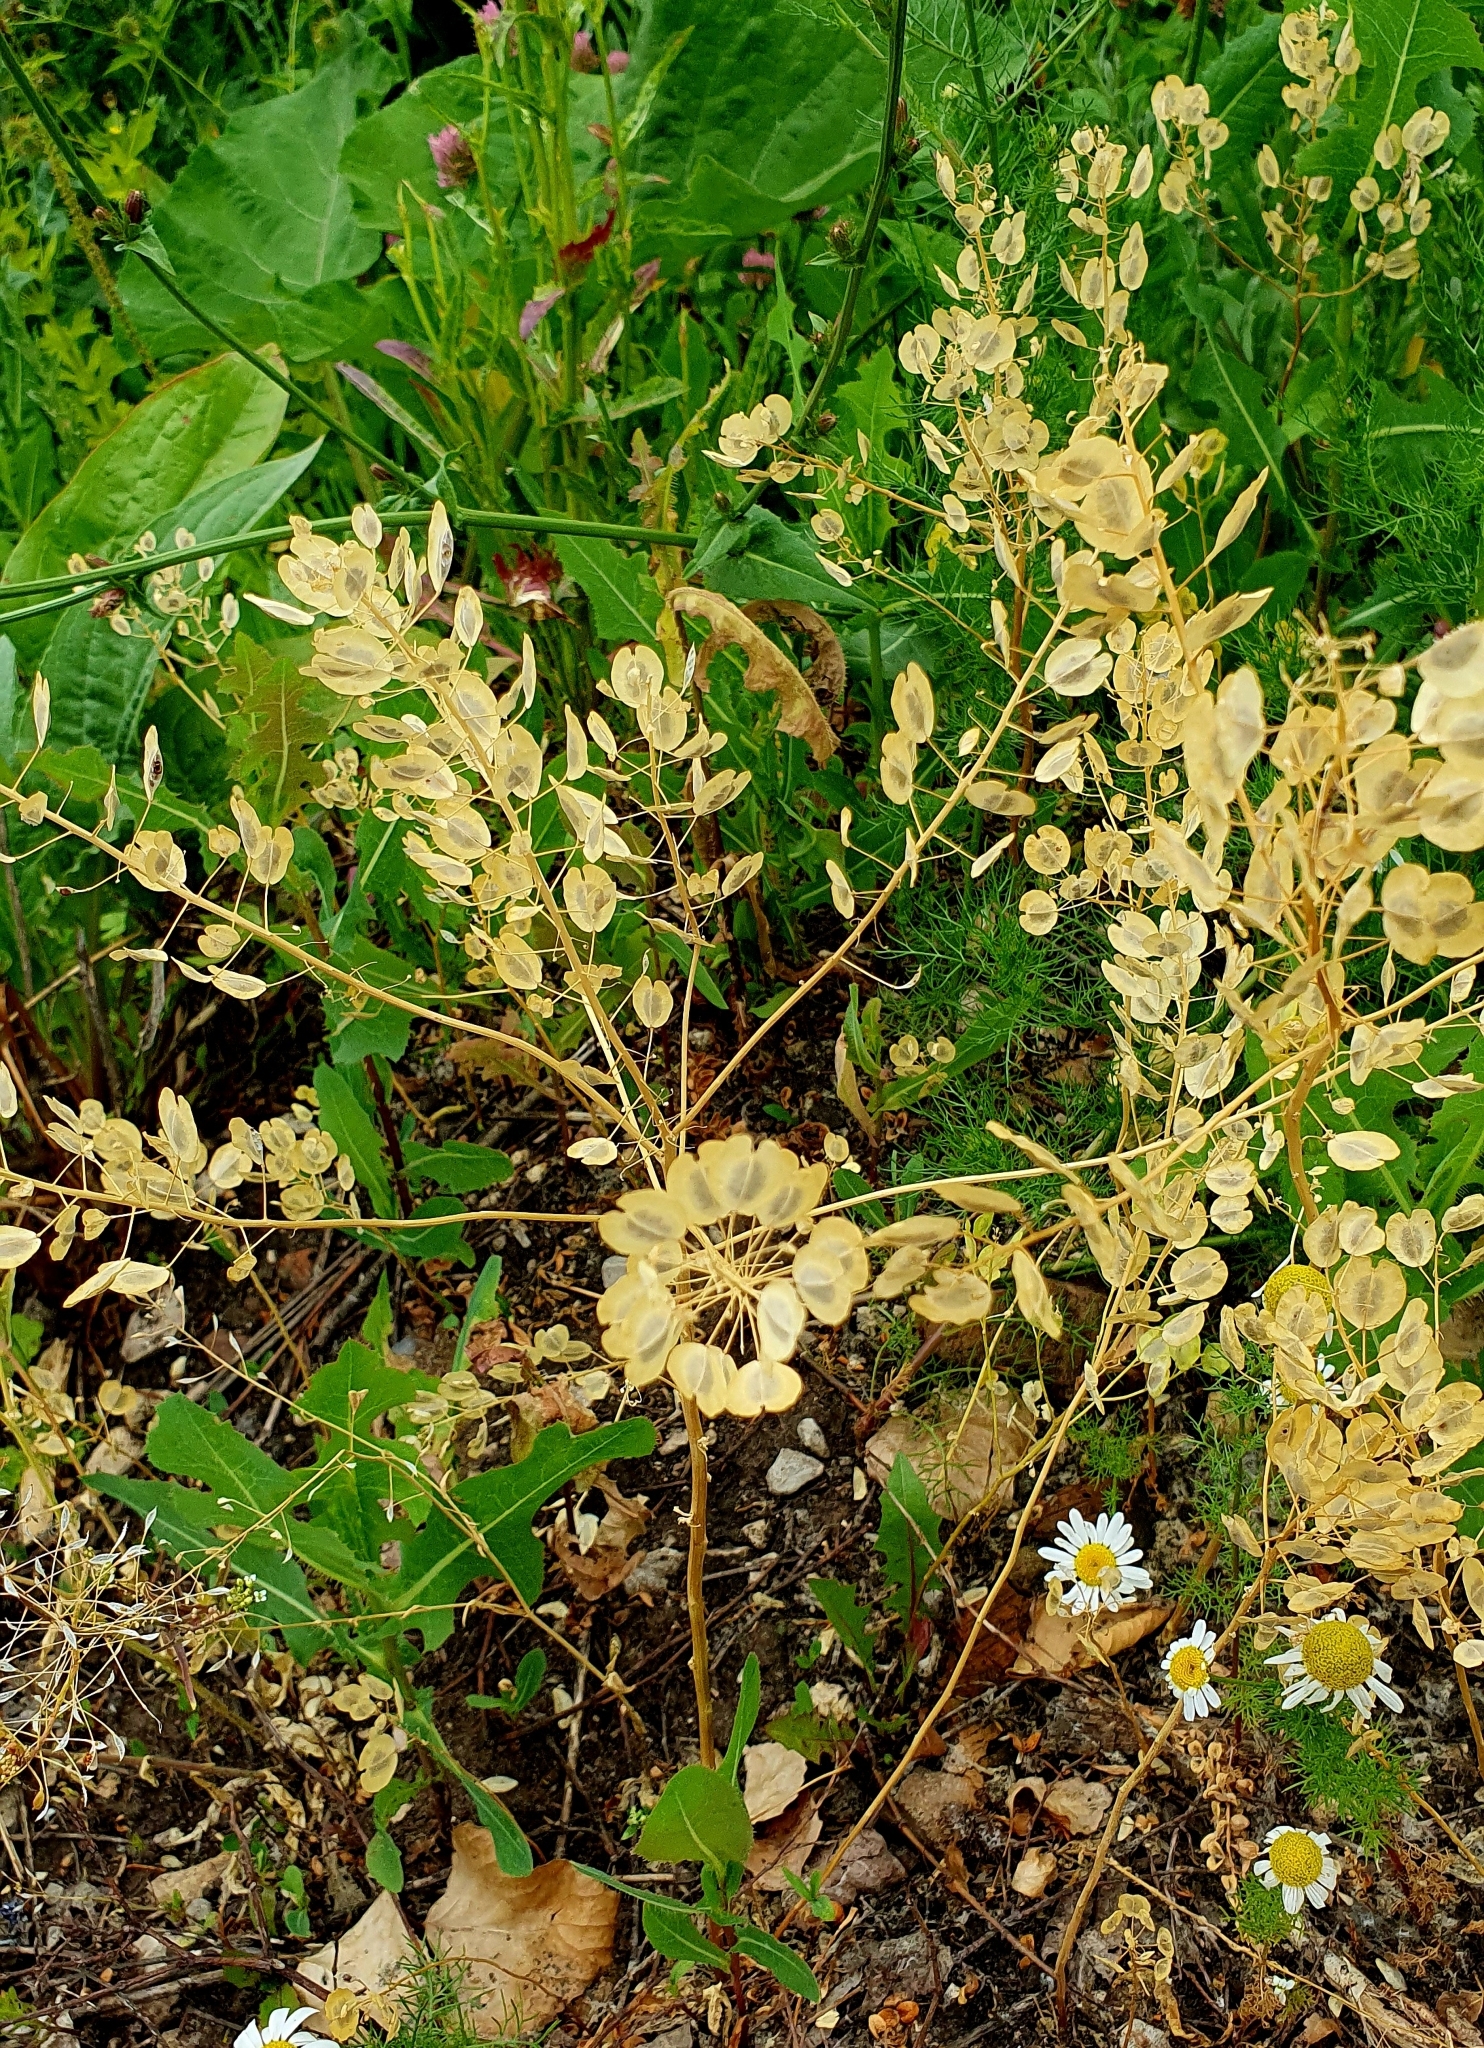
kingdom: Plantae
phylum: Tracheophyta
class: Magnoliopsida
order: Brassicales
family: Brassicaceae
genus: Thlaspi
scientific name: Thlaspi arvense
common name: Field pennycress
